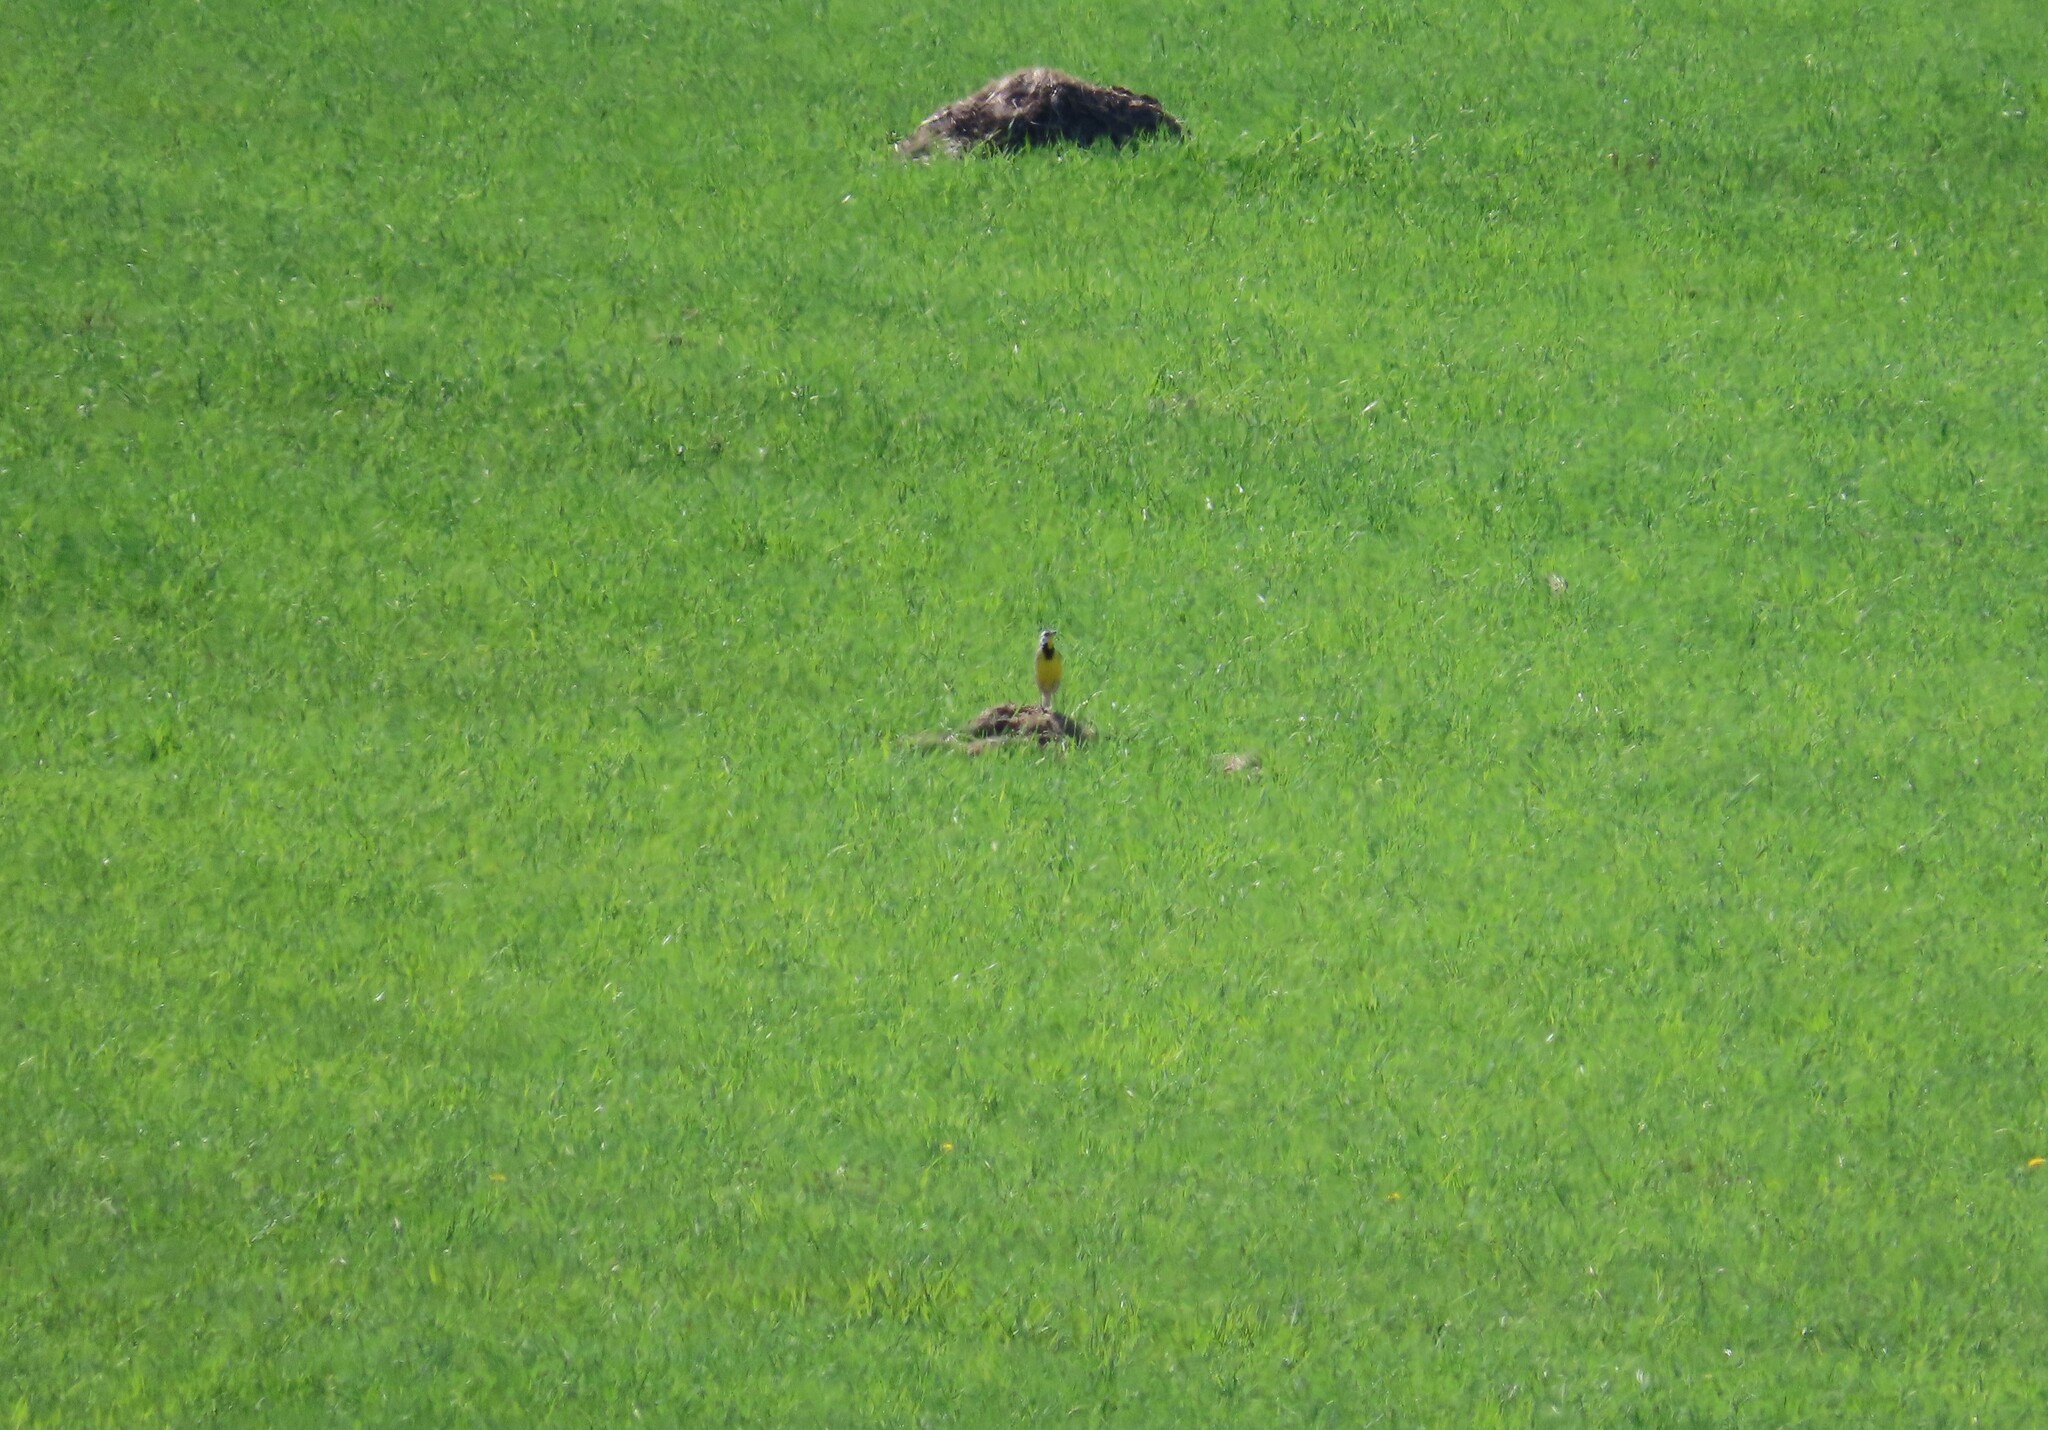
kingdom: Animalia
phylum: Chordata
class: Aves
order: Passeriformes
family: Icteridae
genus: Sturnella
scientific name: Sturnella magna
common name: Eastern meadowlark
